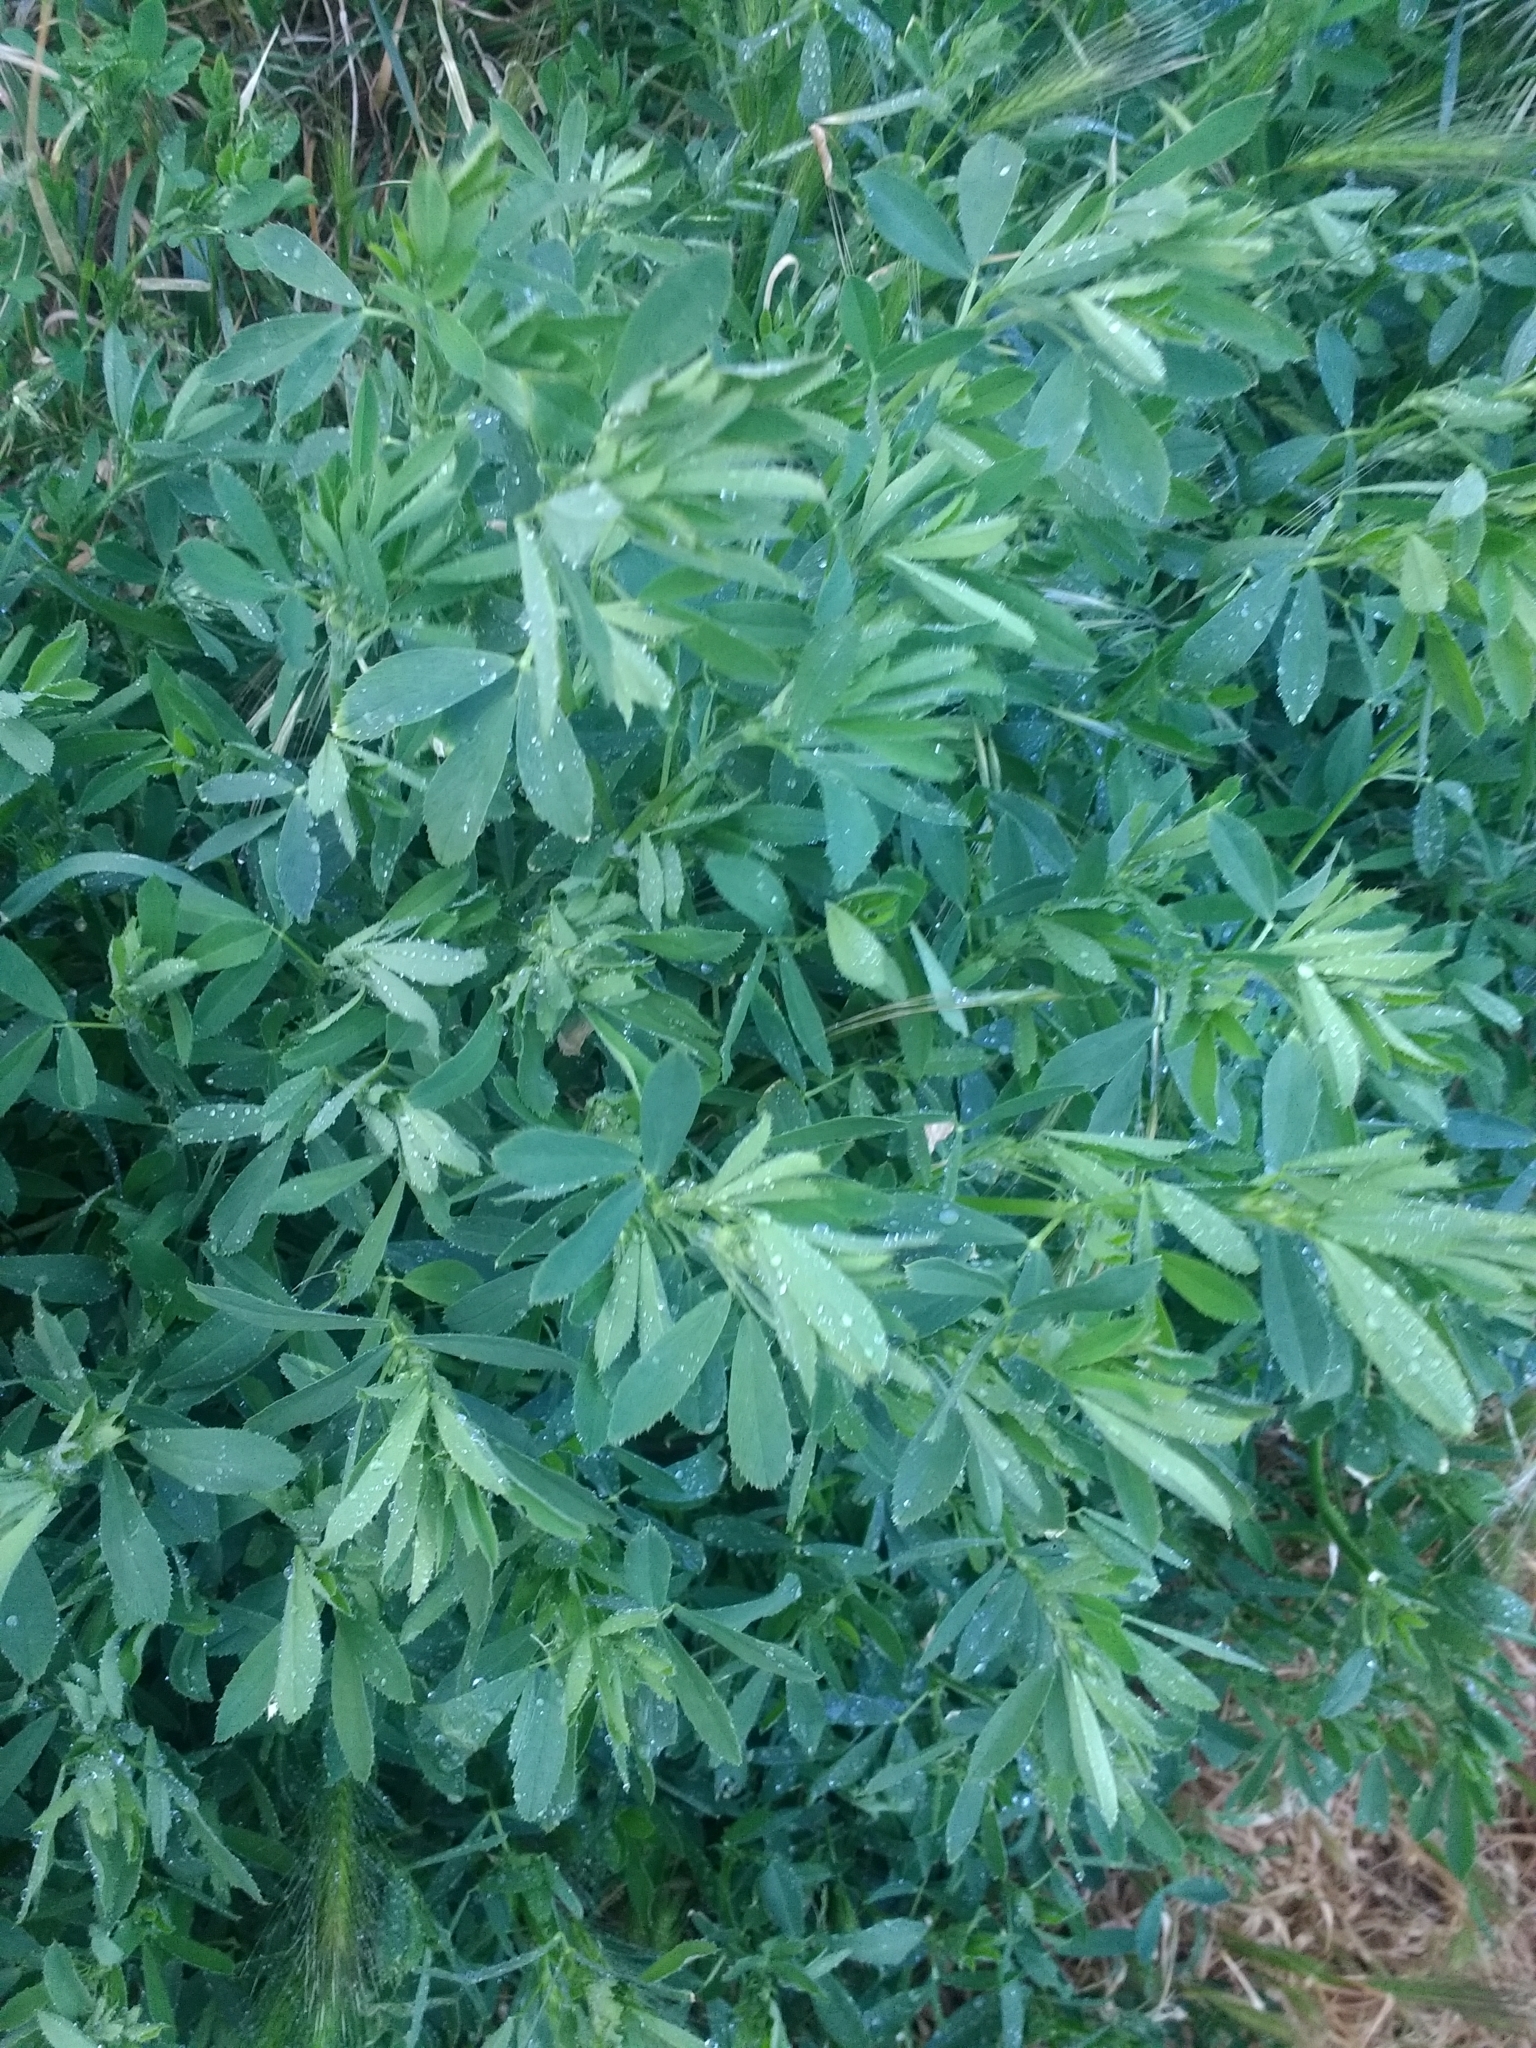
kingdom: Plantae
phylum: Tracheophyta
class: Magnoliopsida
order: Fabales
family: Fabaceae
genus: Medicago
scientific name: Medicago sativa
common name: Alfalfa
